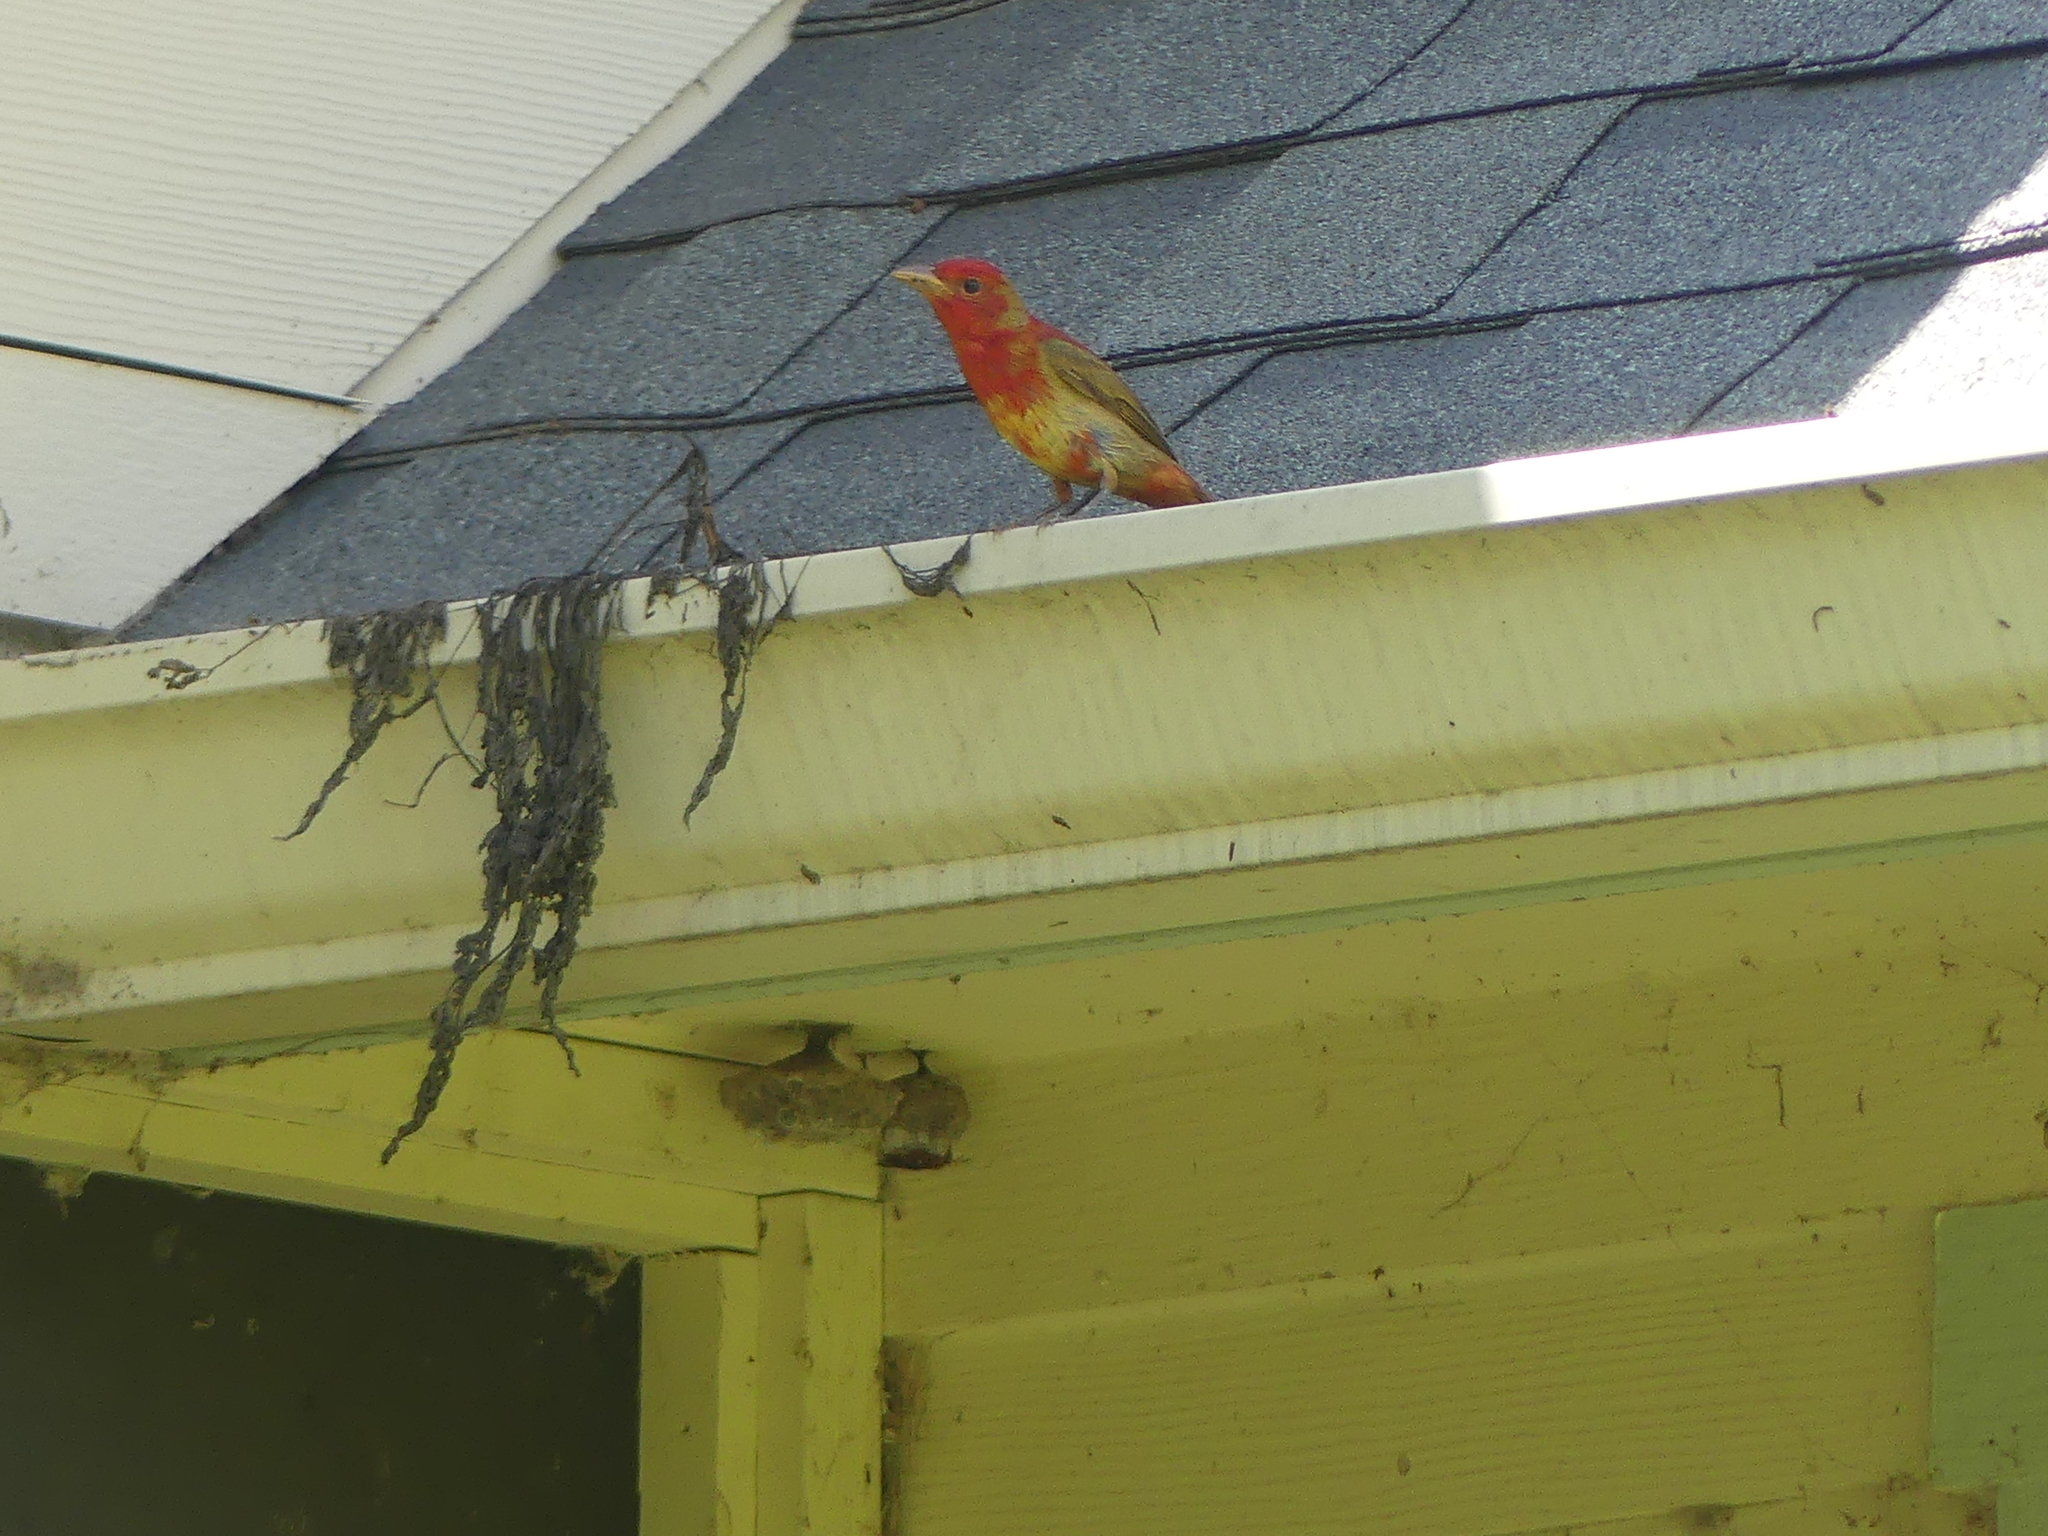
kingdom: Animalia
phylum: Chordata
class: Aves
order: Passeriformes
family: Cardinalidae
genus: Piranga
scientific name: Piranga rubra
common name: Summer tanager
